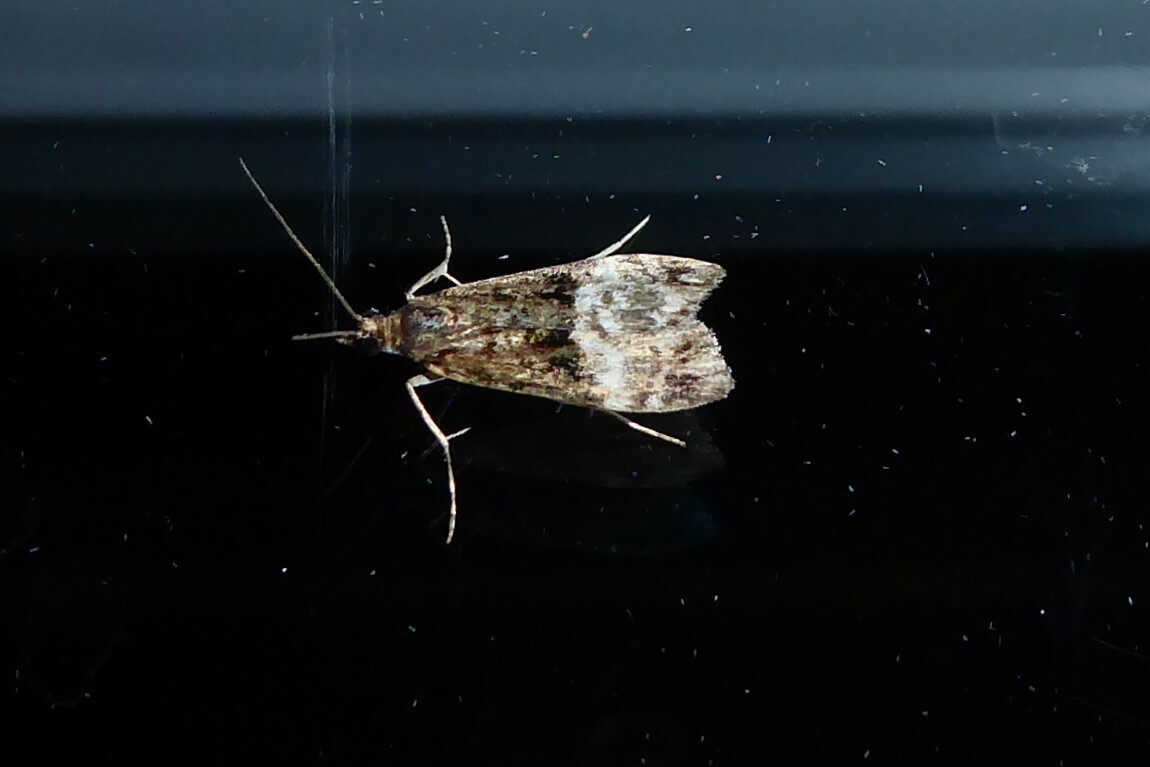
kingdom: Animalia
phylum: Arthropoda
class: Insecta
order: Lepidoptera
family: Crambidae
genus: Scoparia
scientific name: Scoparia minusculalis
